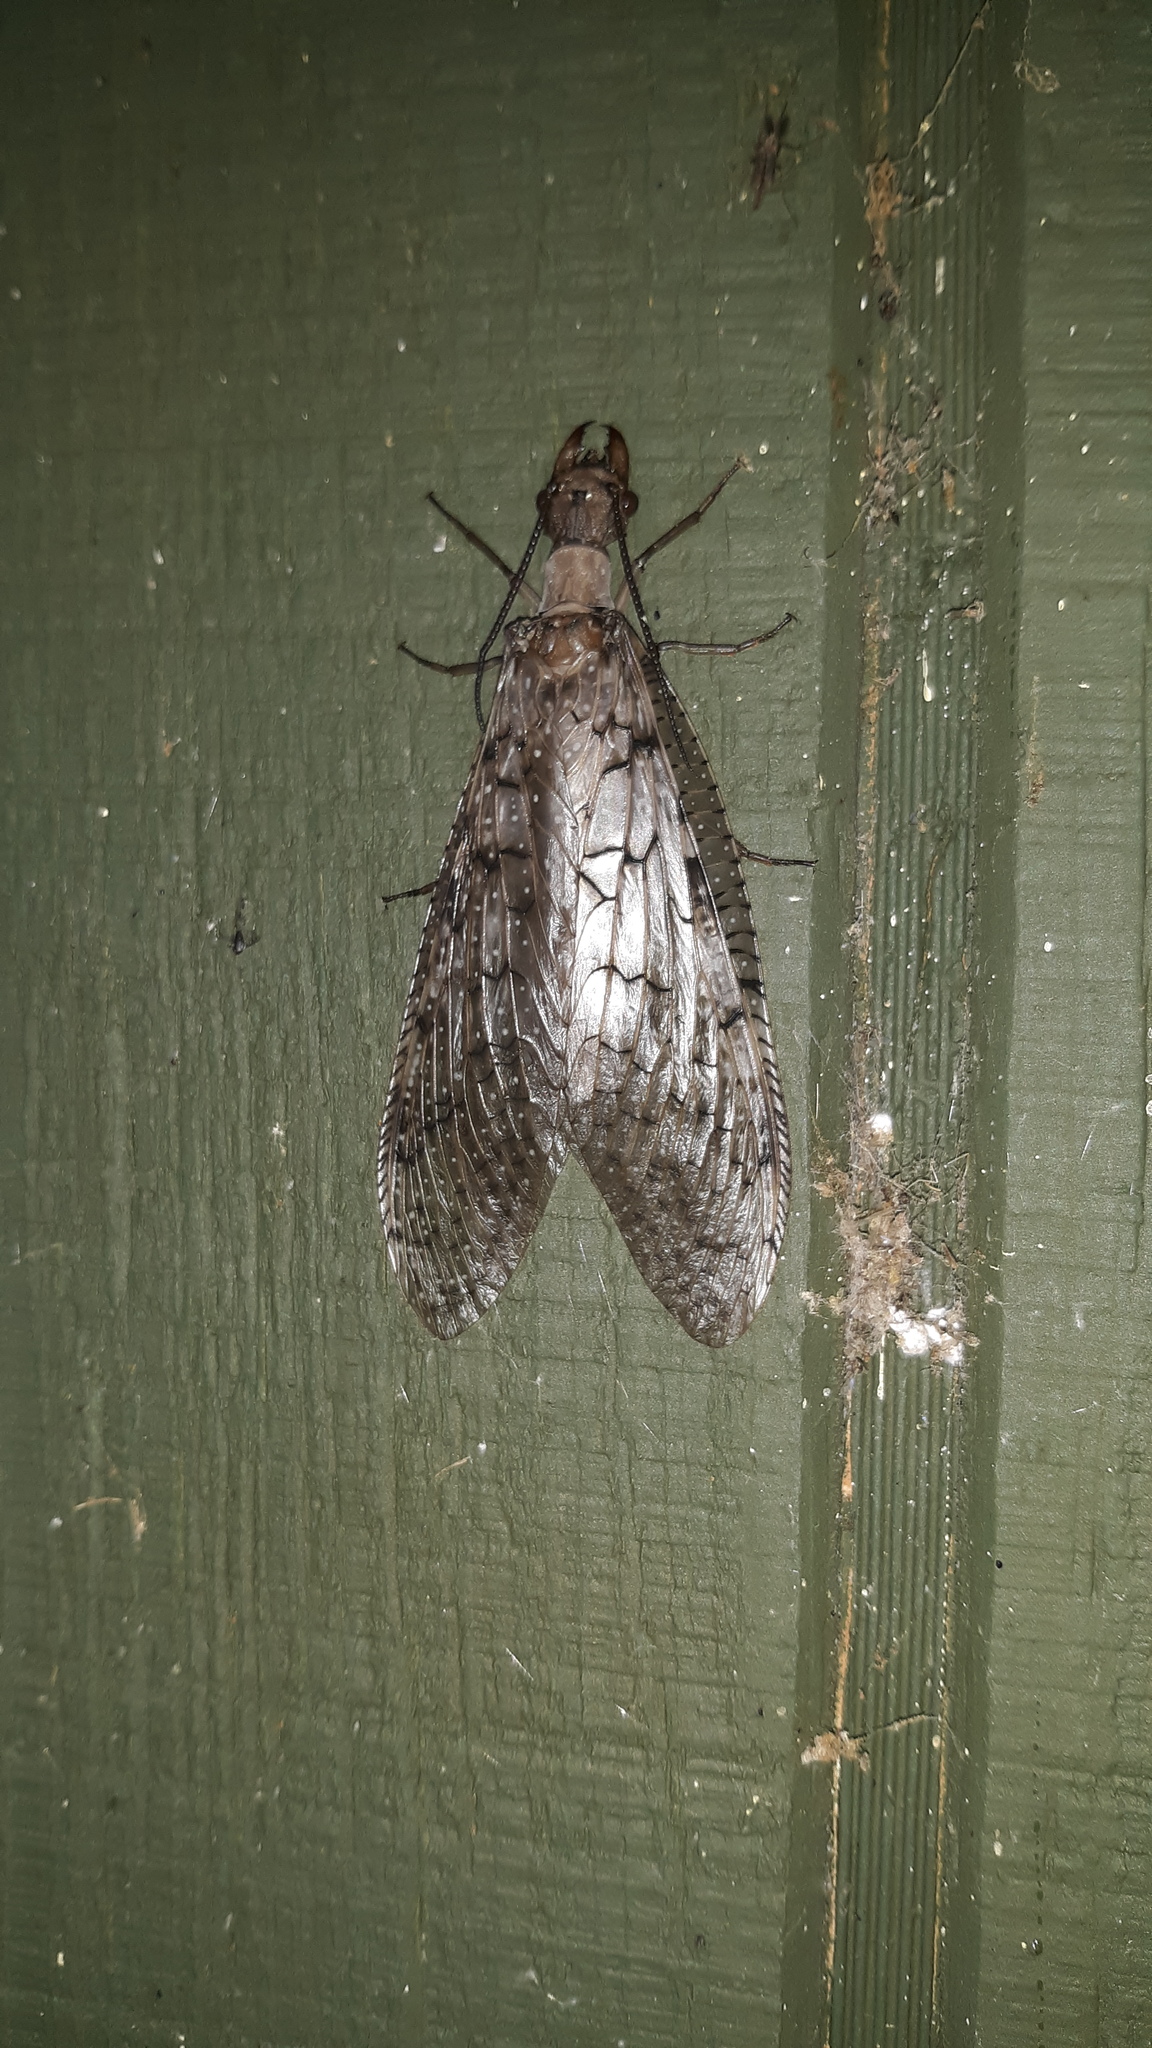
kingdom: Animalia
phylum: Arthropoda
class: Insecta
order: Megaloptera
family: Corydalidae
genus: Corydalus
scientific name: Corydalus cornutus
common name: Dobsonfly
